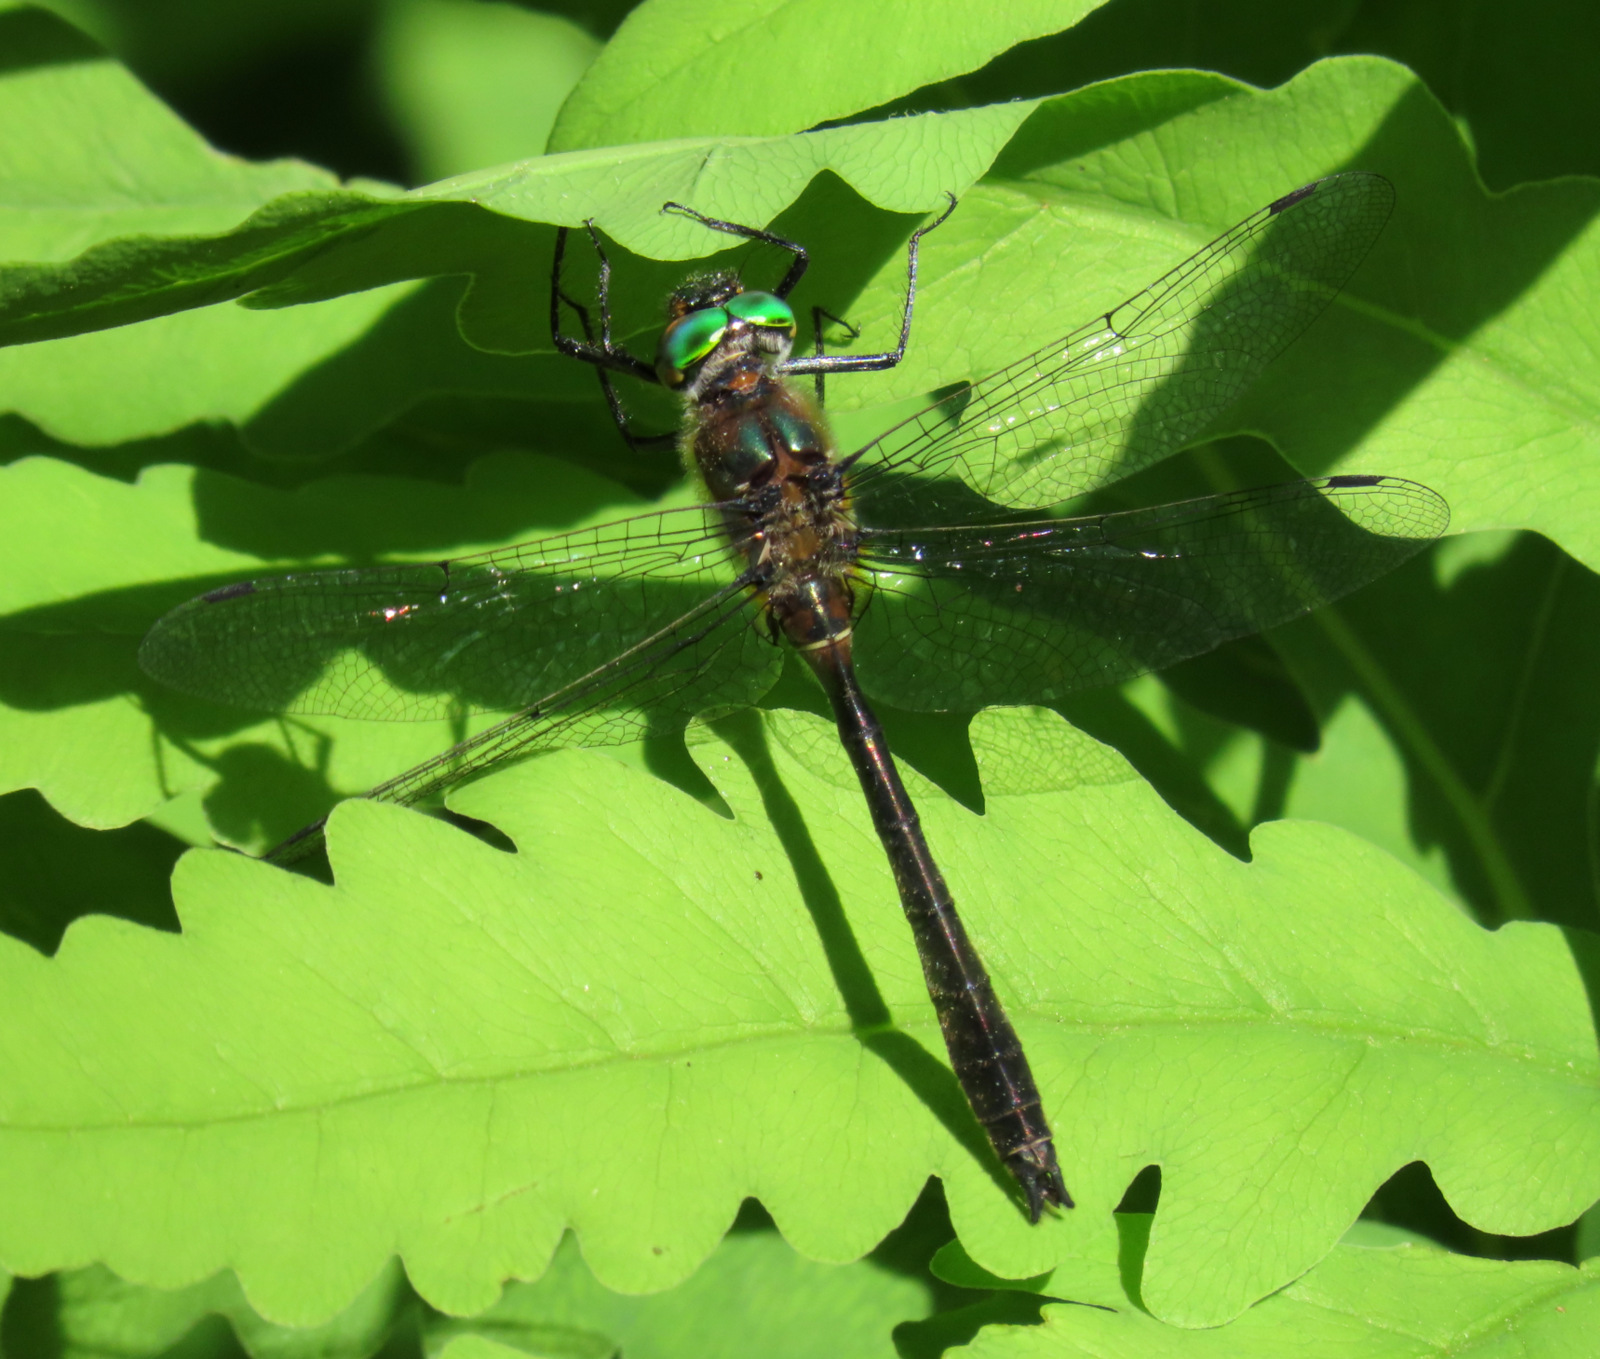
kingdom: Animalia
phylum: Arthropoda
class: Insecta
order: Odonata
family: Corduliidae
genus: Cordulia
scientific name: Cordulia shurtleffii
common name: American emerald
